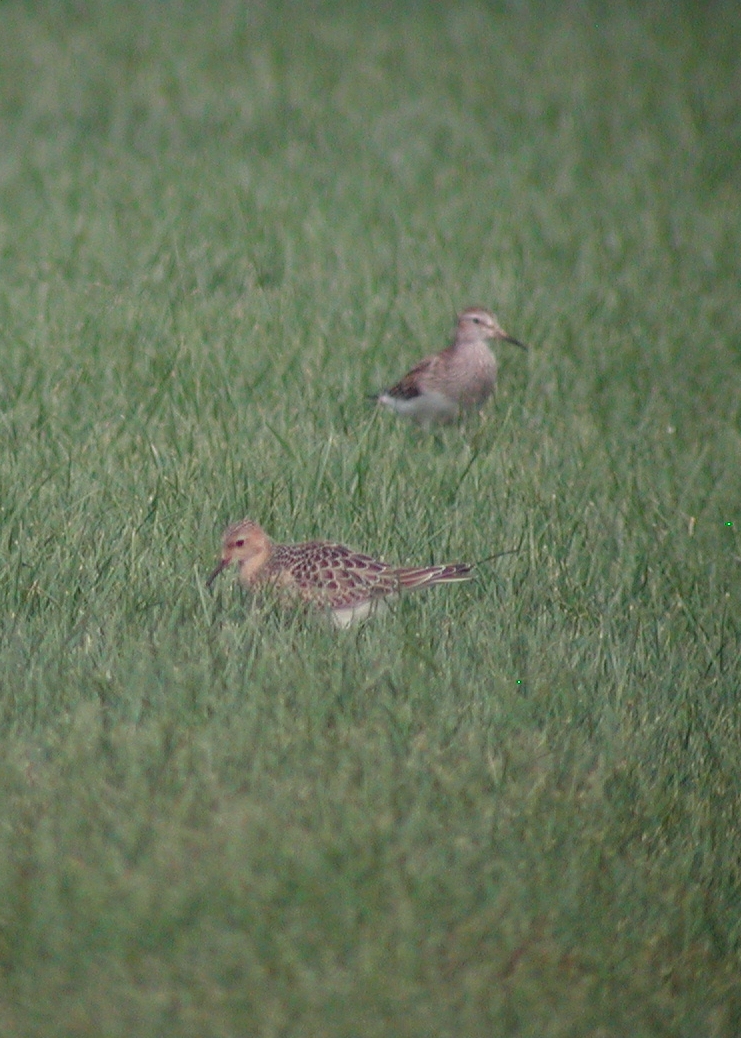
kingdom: Animalia
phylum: Chordata
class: Aves
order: Charadriiformes
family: Scolopacidae
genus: Calidris
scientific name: Calidris subruficollis
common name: Buff-breasted sandpiper
